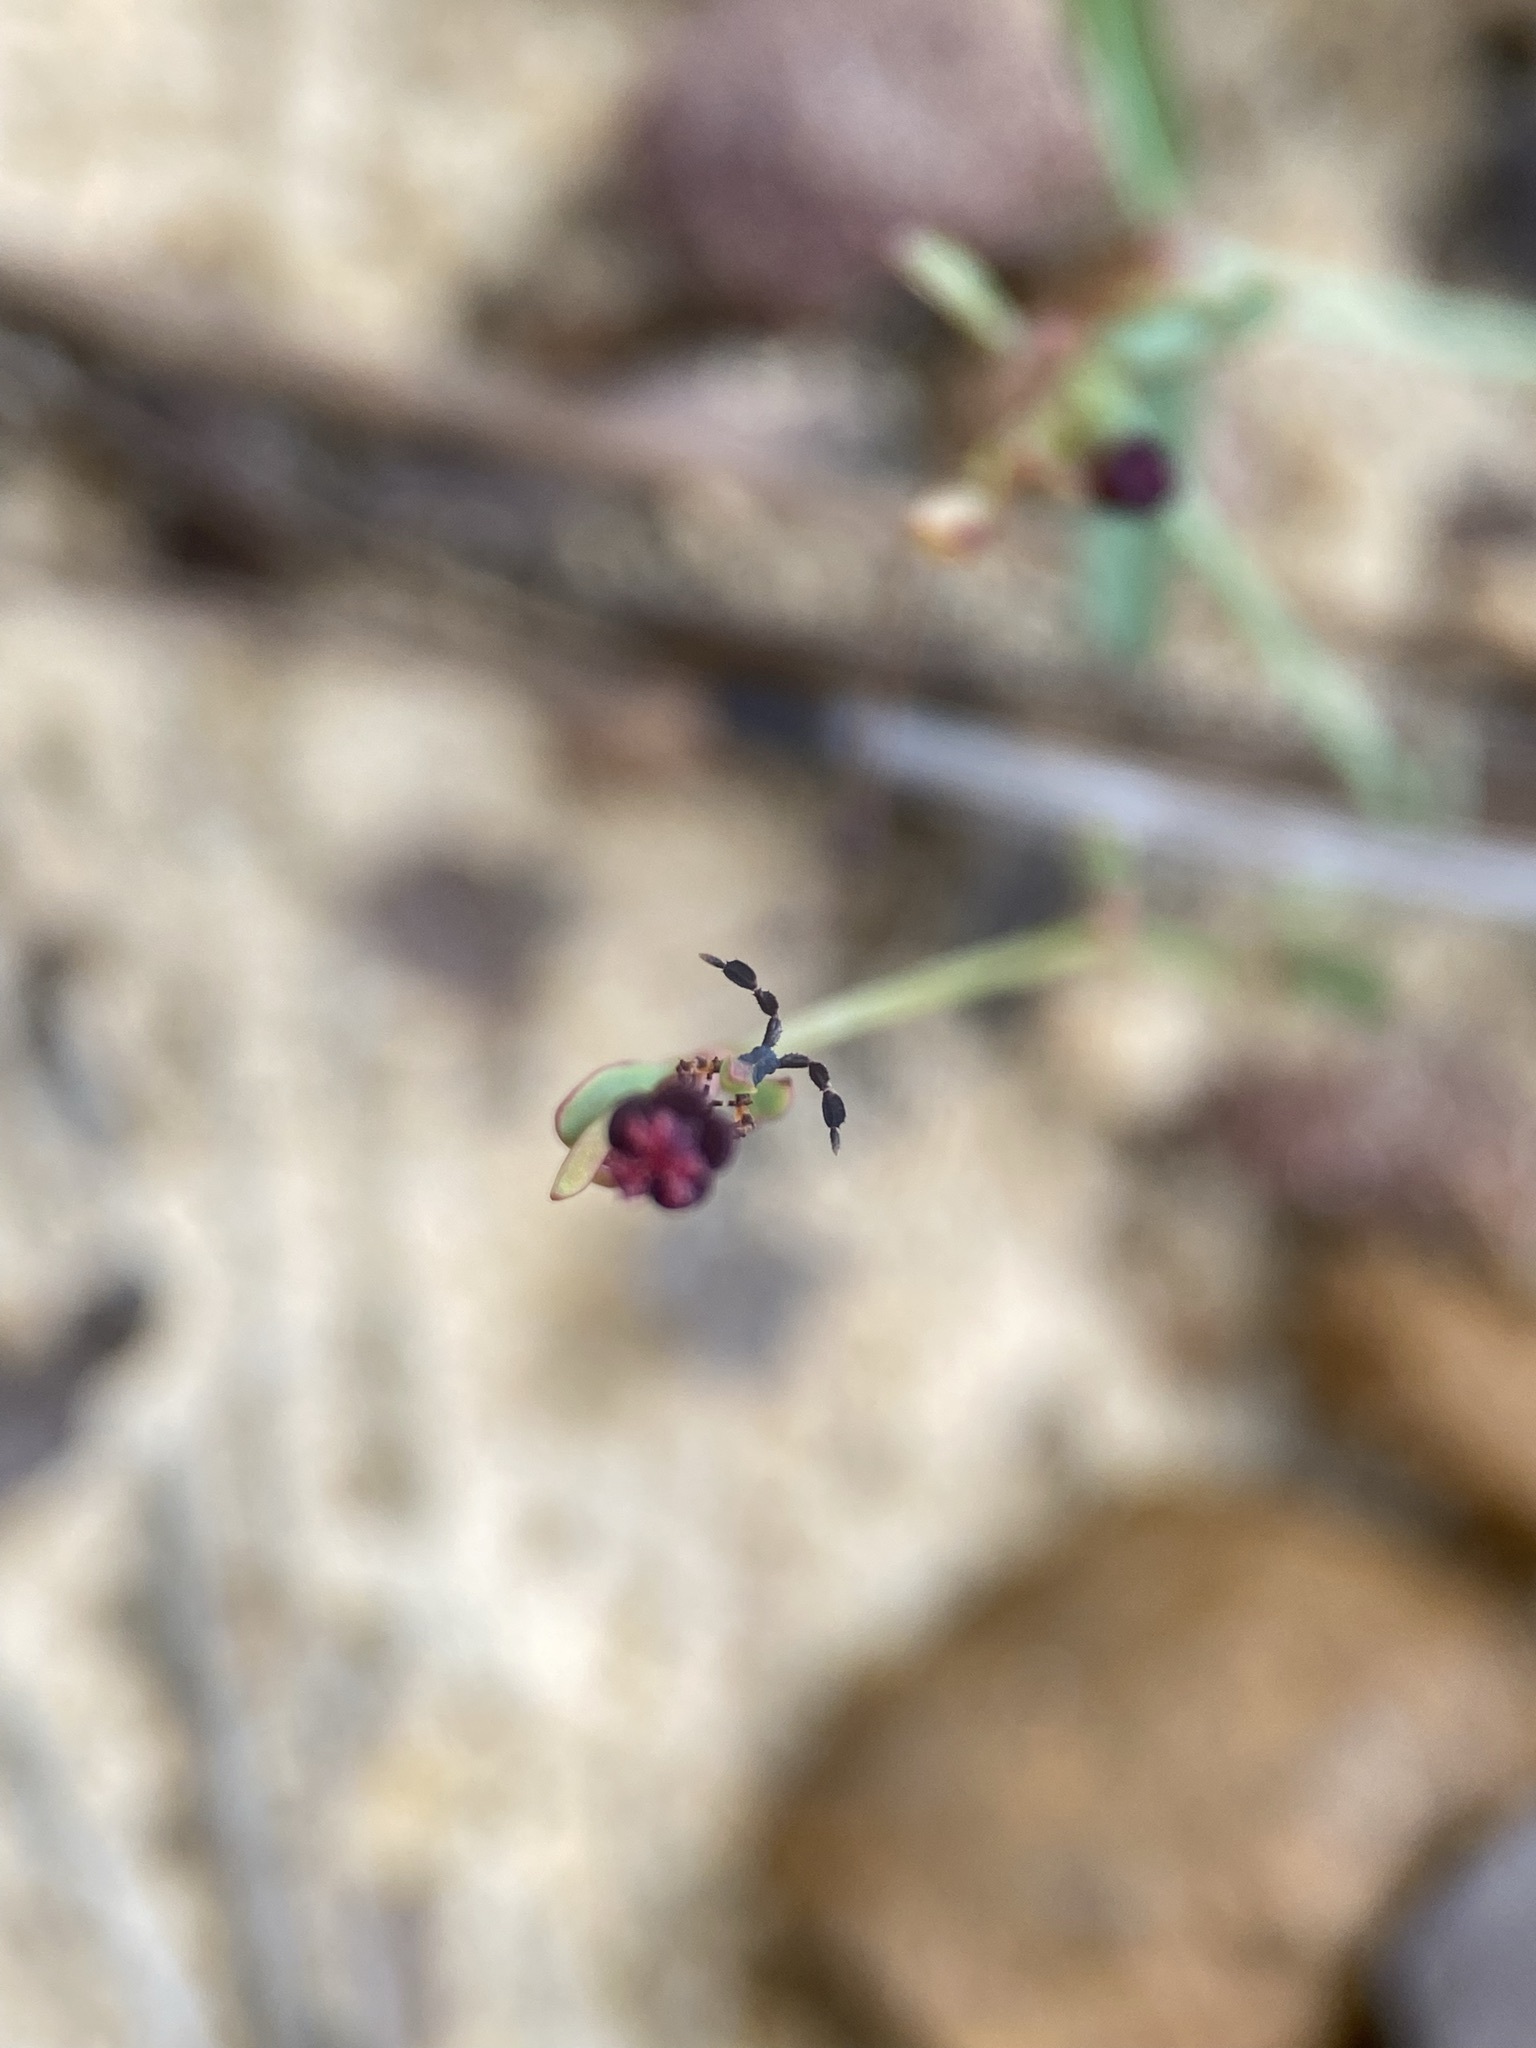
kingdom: Plantae
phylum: Tracheophyta
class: Magnoliopsida
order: Malpighiales
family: Euphorbiaceae
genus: Euphorbia
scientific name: Euphorbia exserta
